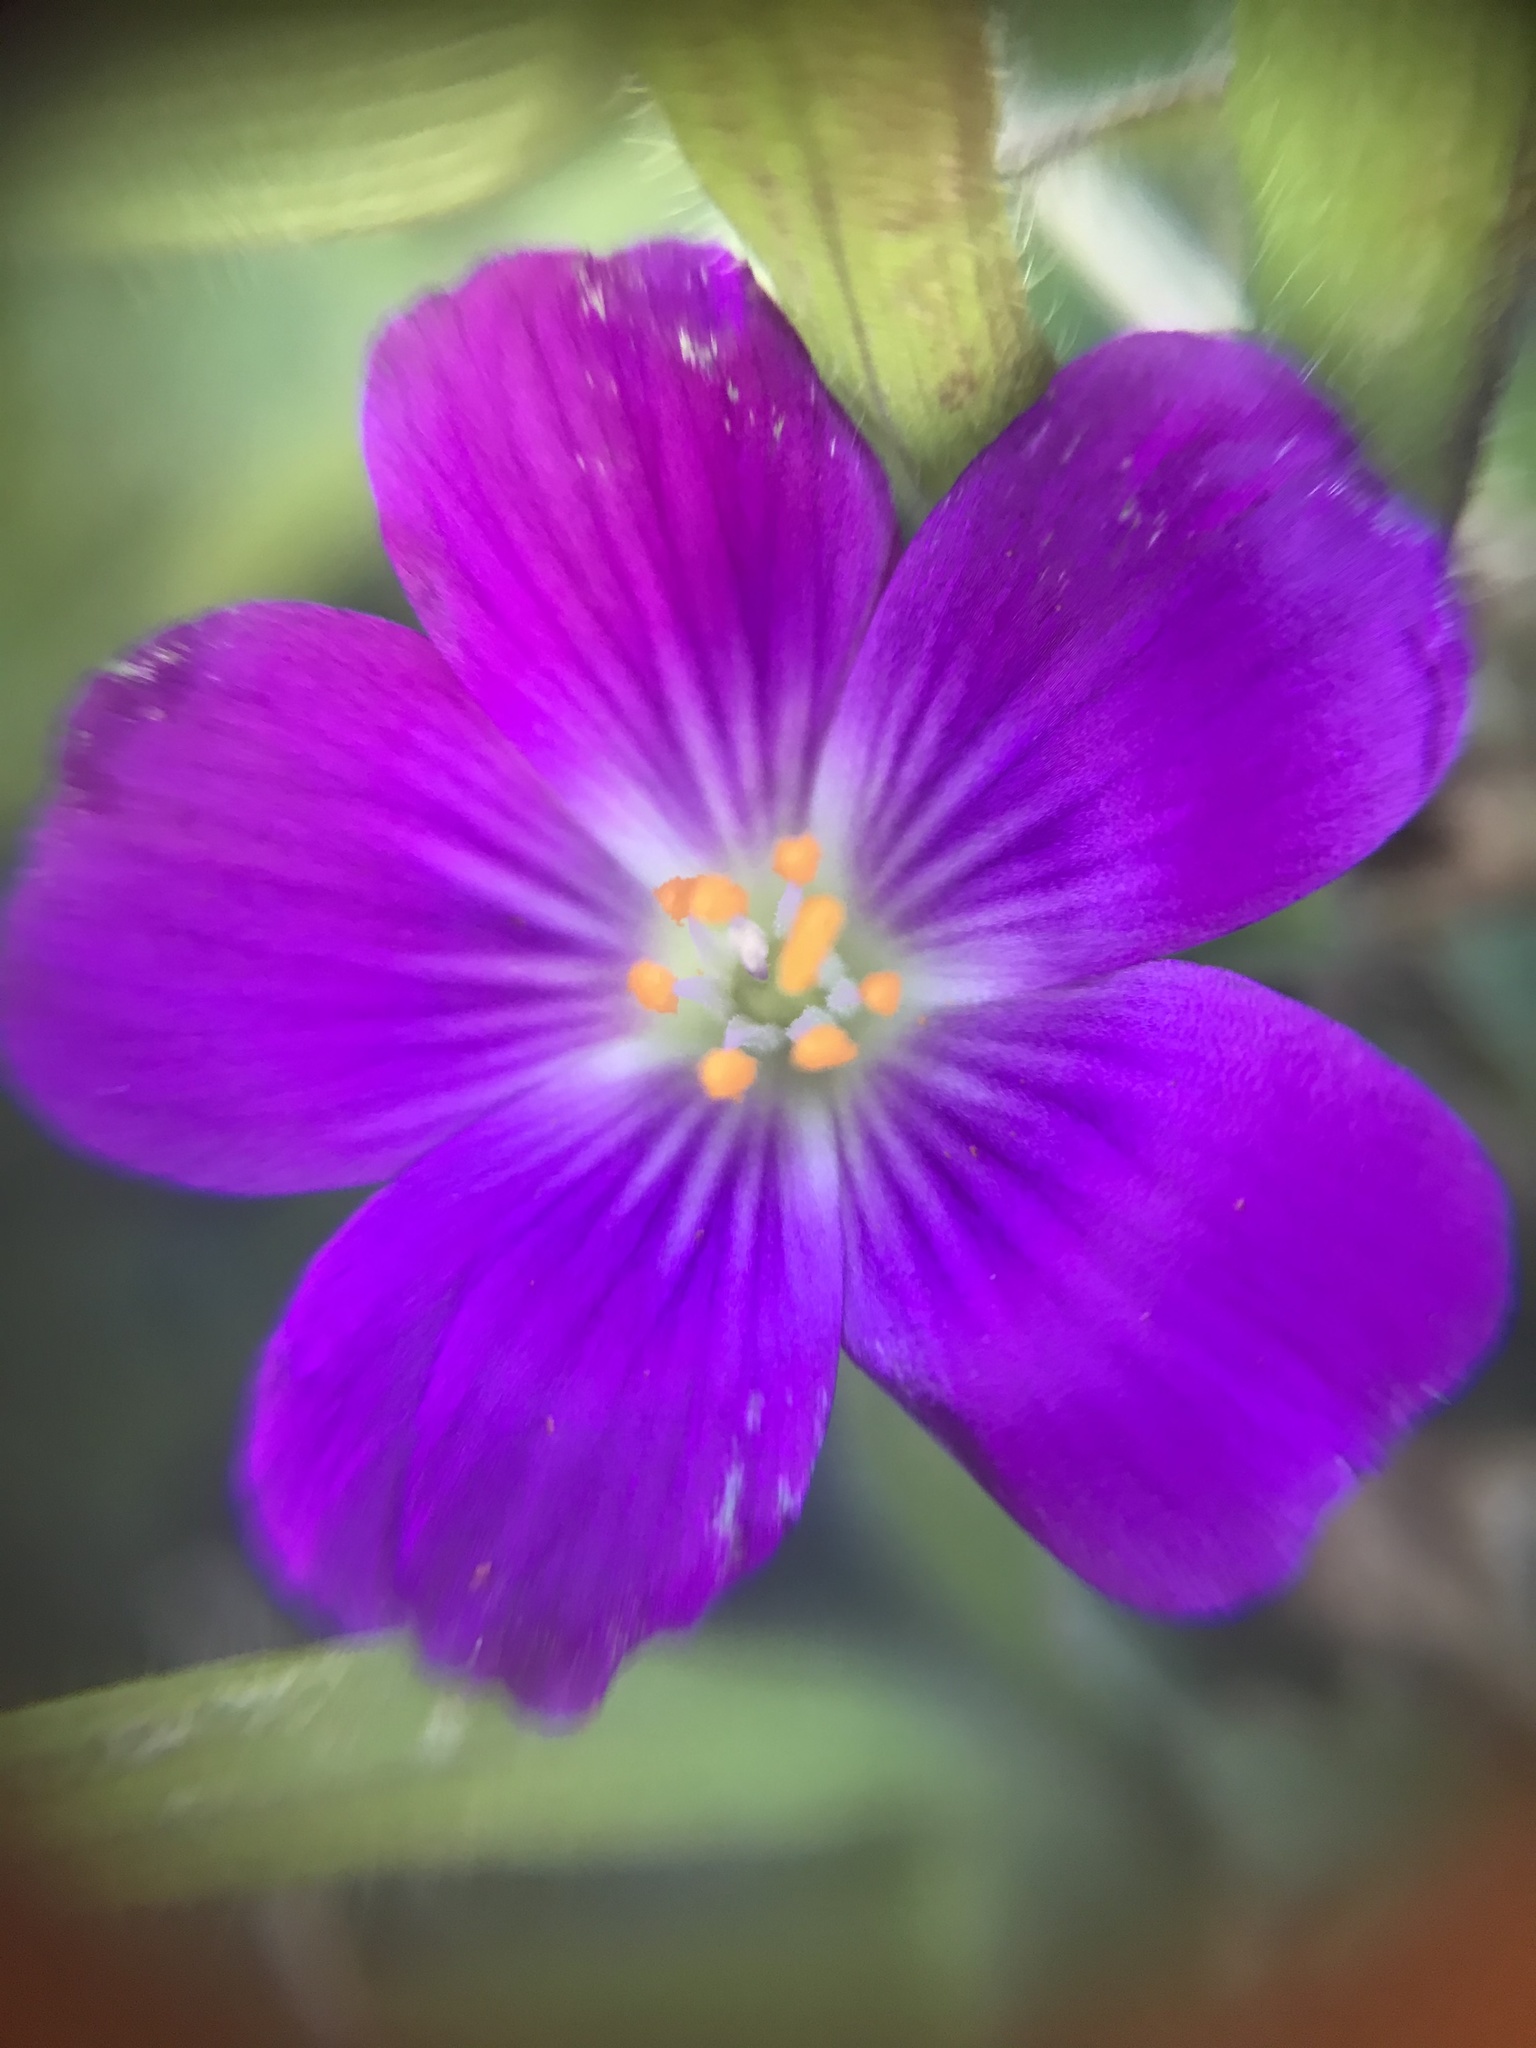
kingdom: Plantae
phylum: Tracheophyta
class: Magnoliopsida
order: Caryophyllales
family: Montiaceae
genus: Calandrinia
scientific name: Calandrinia menziesii
